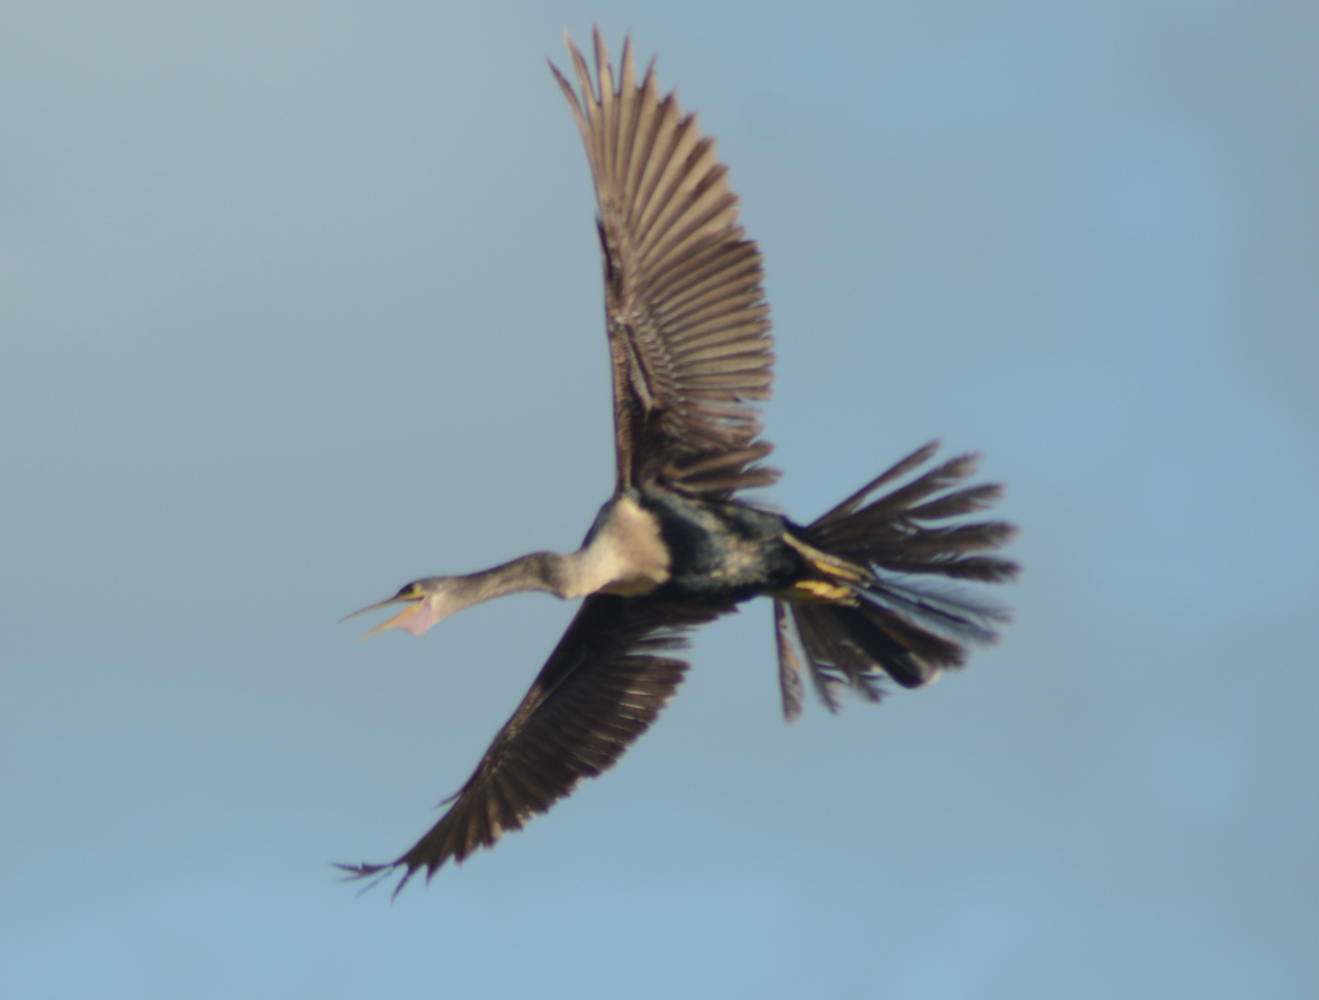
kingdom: Animalia
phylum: Chordata
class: Aves
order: Suliformes
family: Anhingidae
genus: Anhinga
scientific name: Anhinga anhinga
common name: Anhinga
